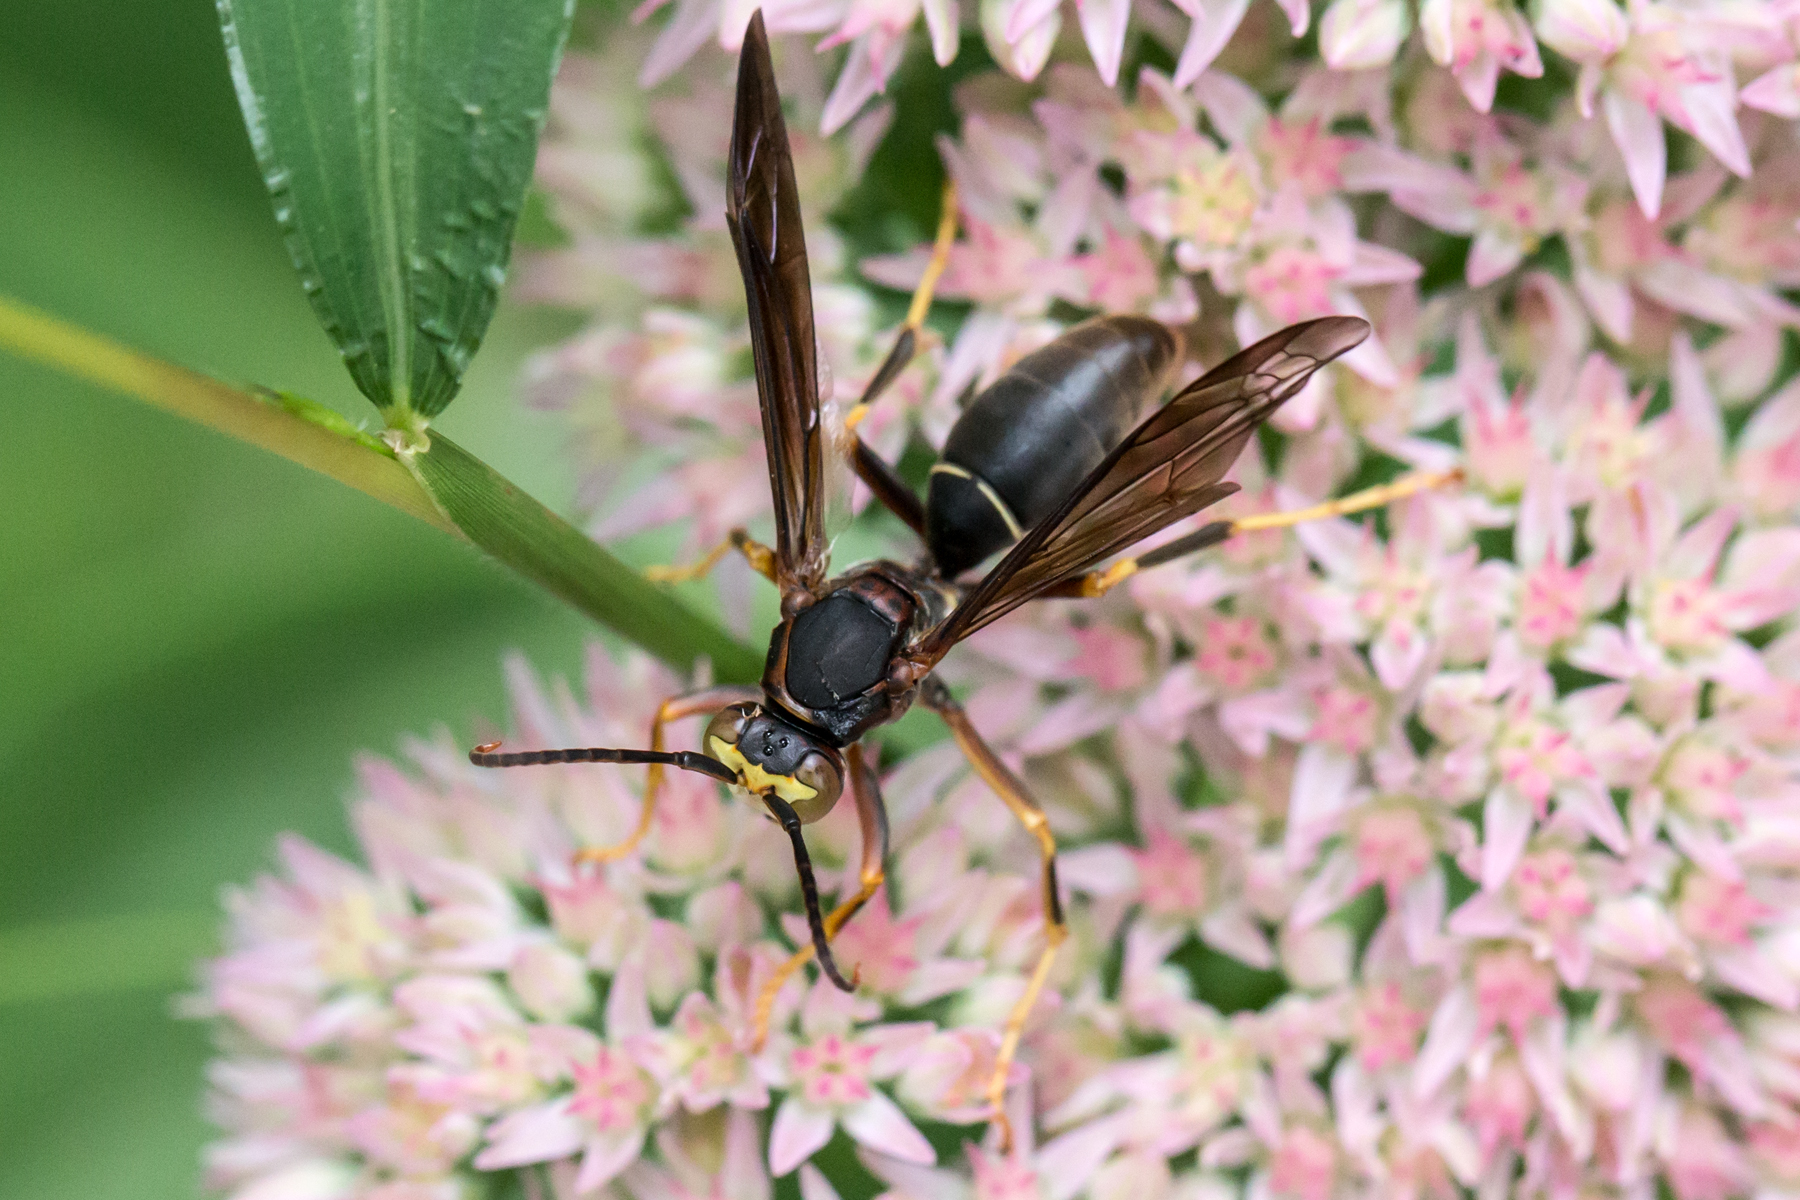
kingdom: Animalia
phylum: Arthropoda
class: Insecta
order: Hymenoptera
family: Eumenidae
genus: Polistes
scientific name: Polistes parametricus
